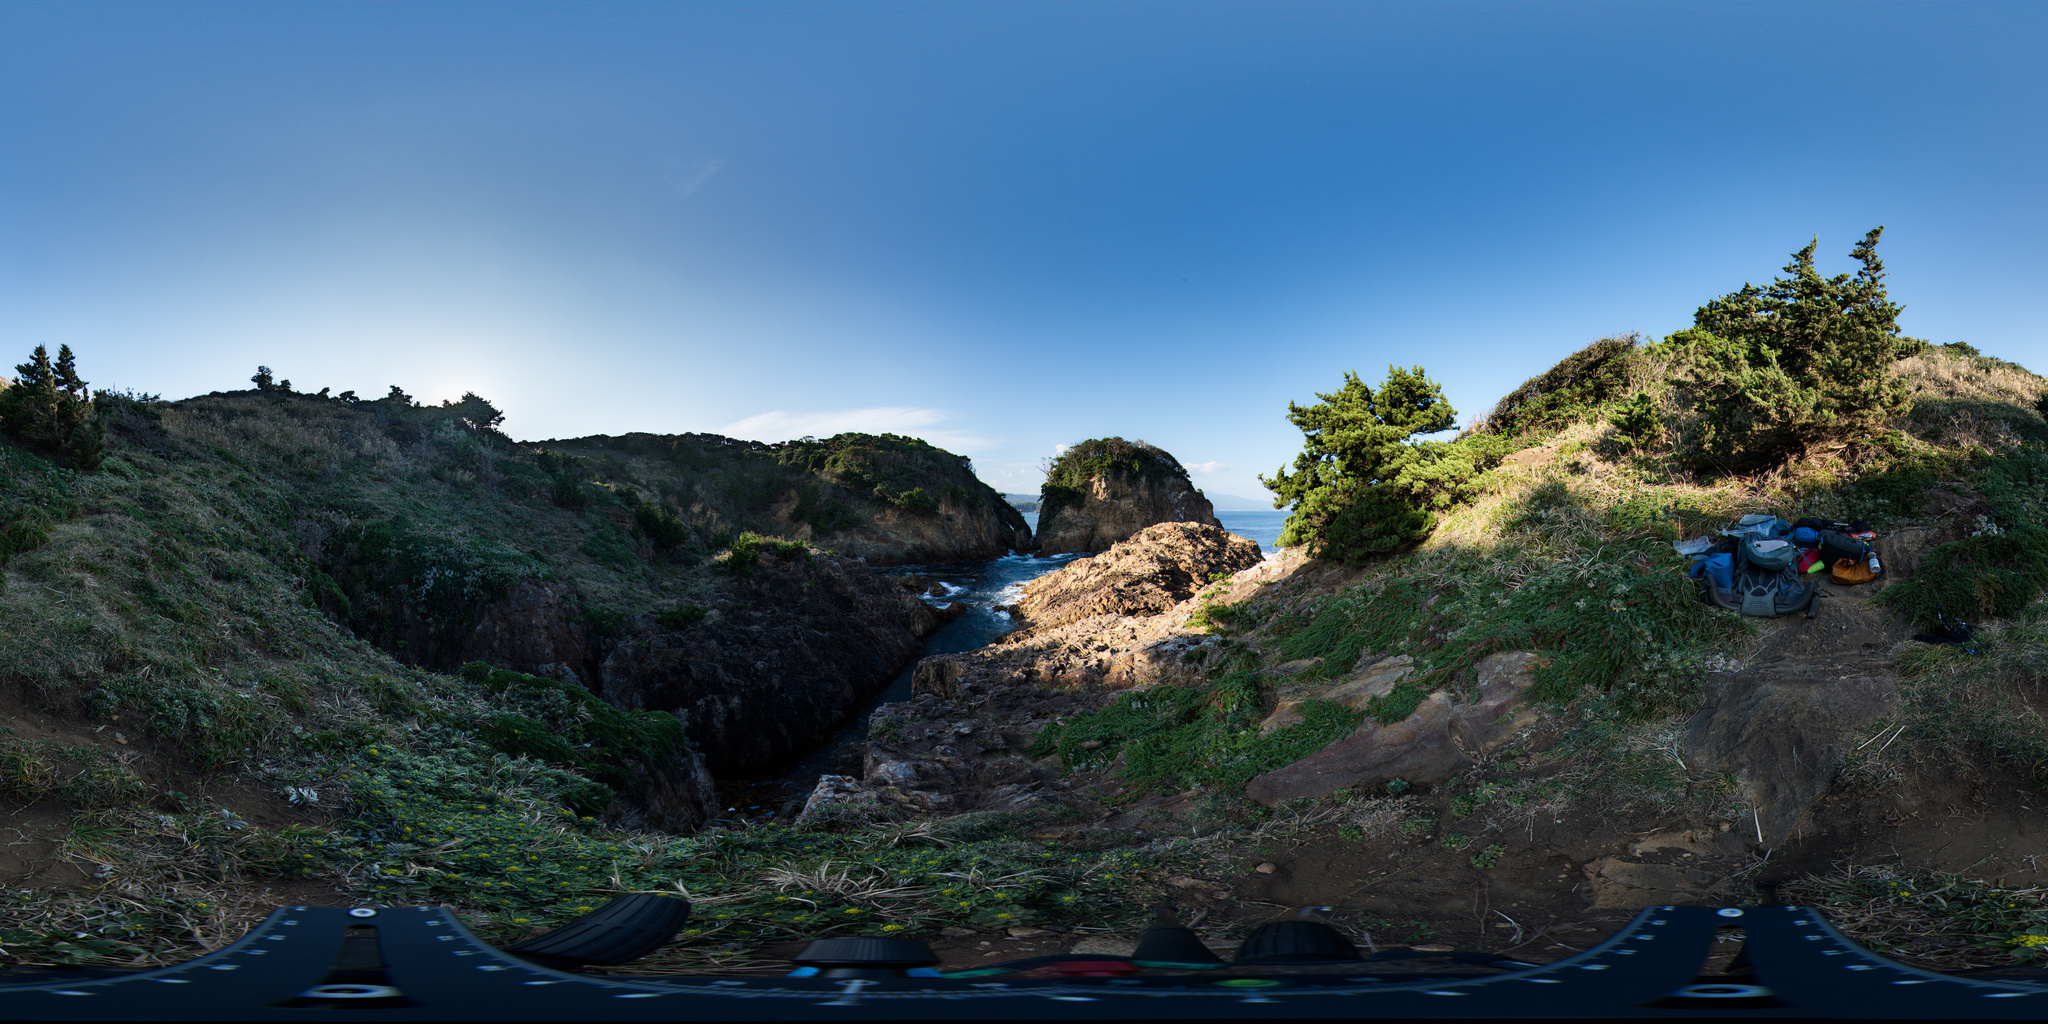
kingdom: Plantae
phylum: Tracheophyta
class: Magnoliopsida
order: Gentianales
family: Gentianaceae
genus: Swertia
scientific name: Swertia noguchiana
